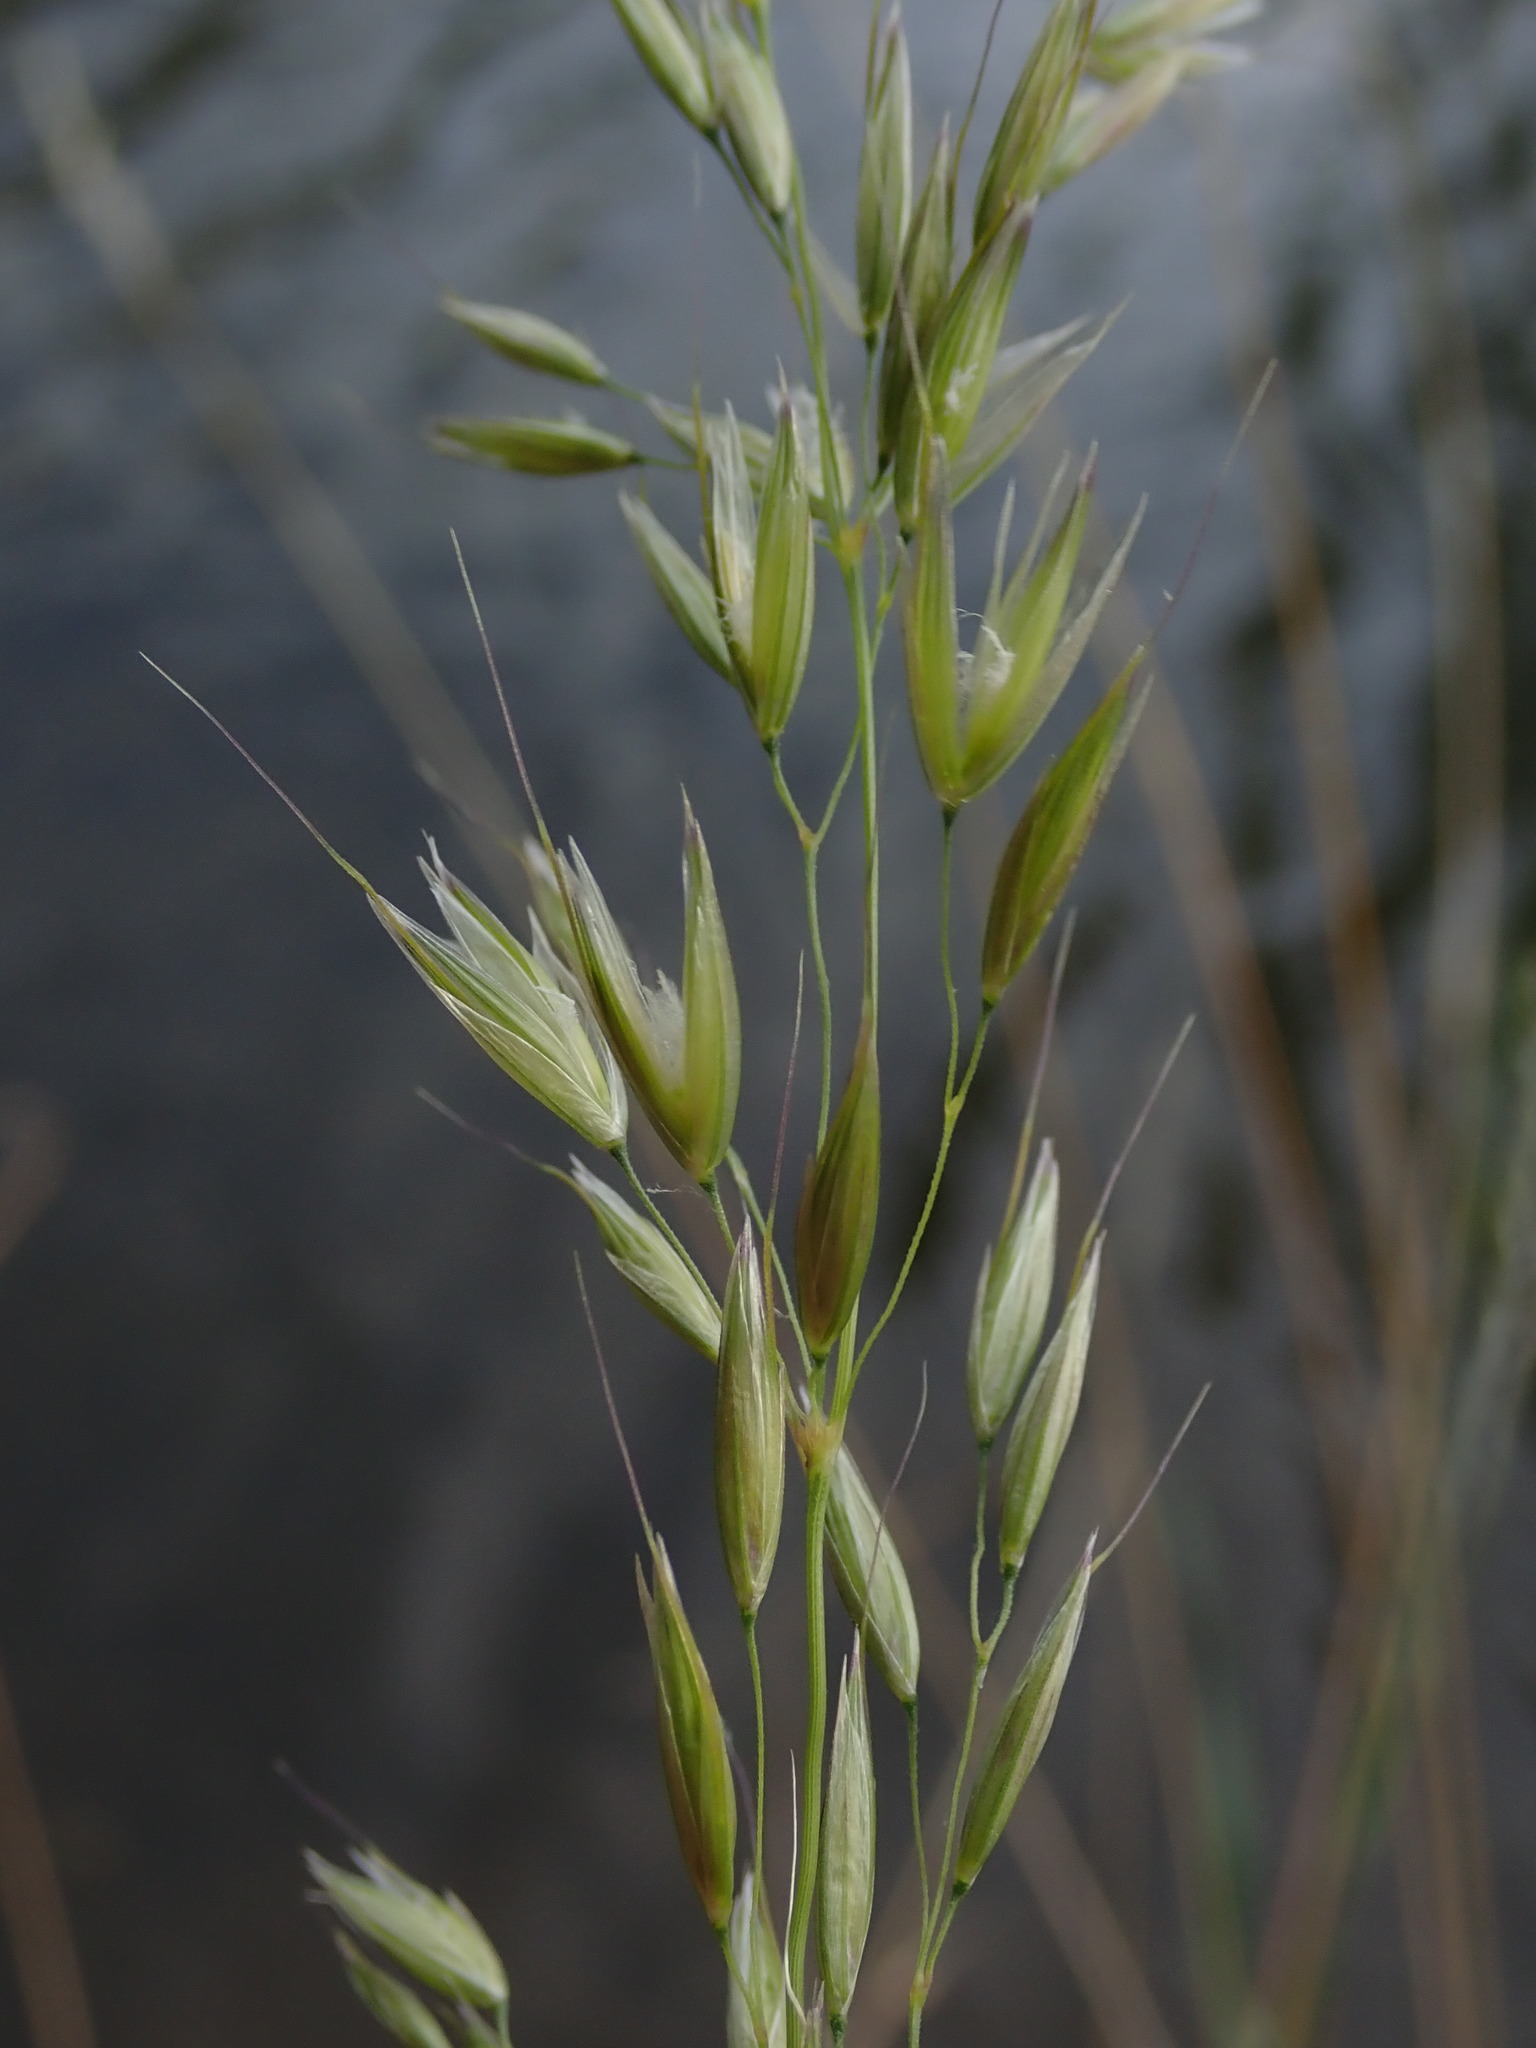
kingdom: Plantae
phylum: Tracheophyta
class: Liliopsida
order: Poales
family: Poaceae
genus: Arrhenatherum
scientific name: Arrhenatherum elatius
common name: Tall oatgrass
